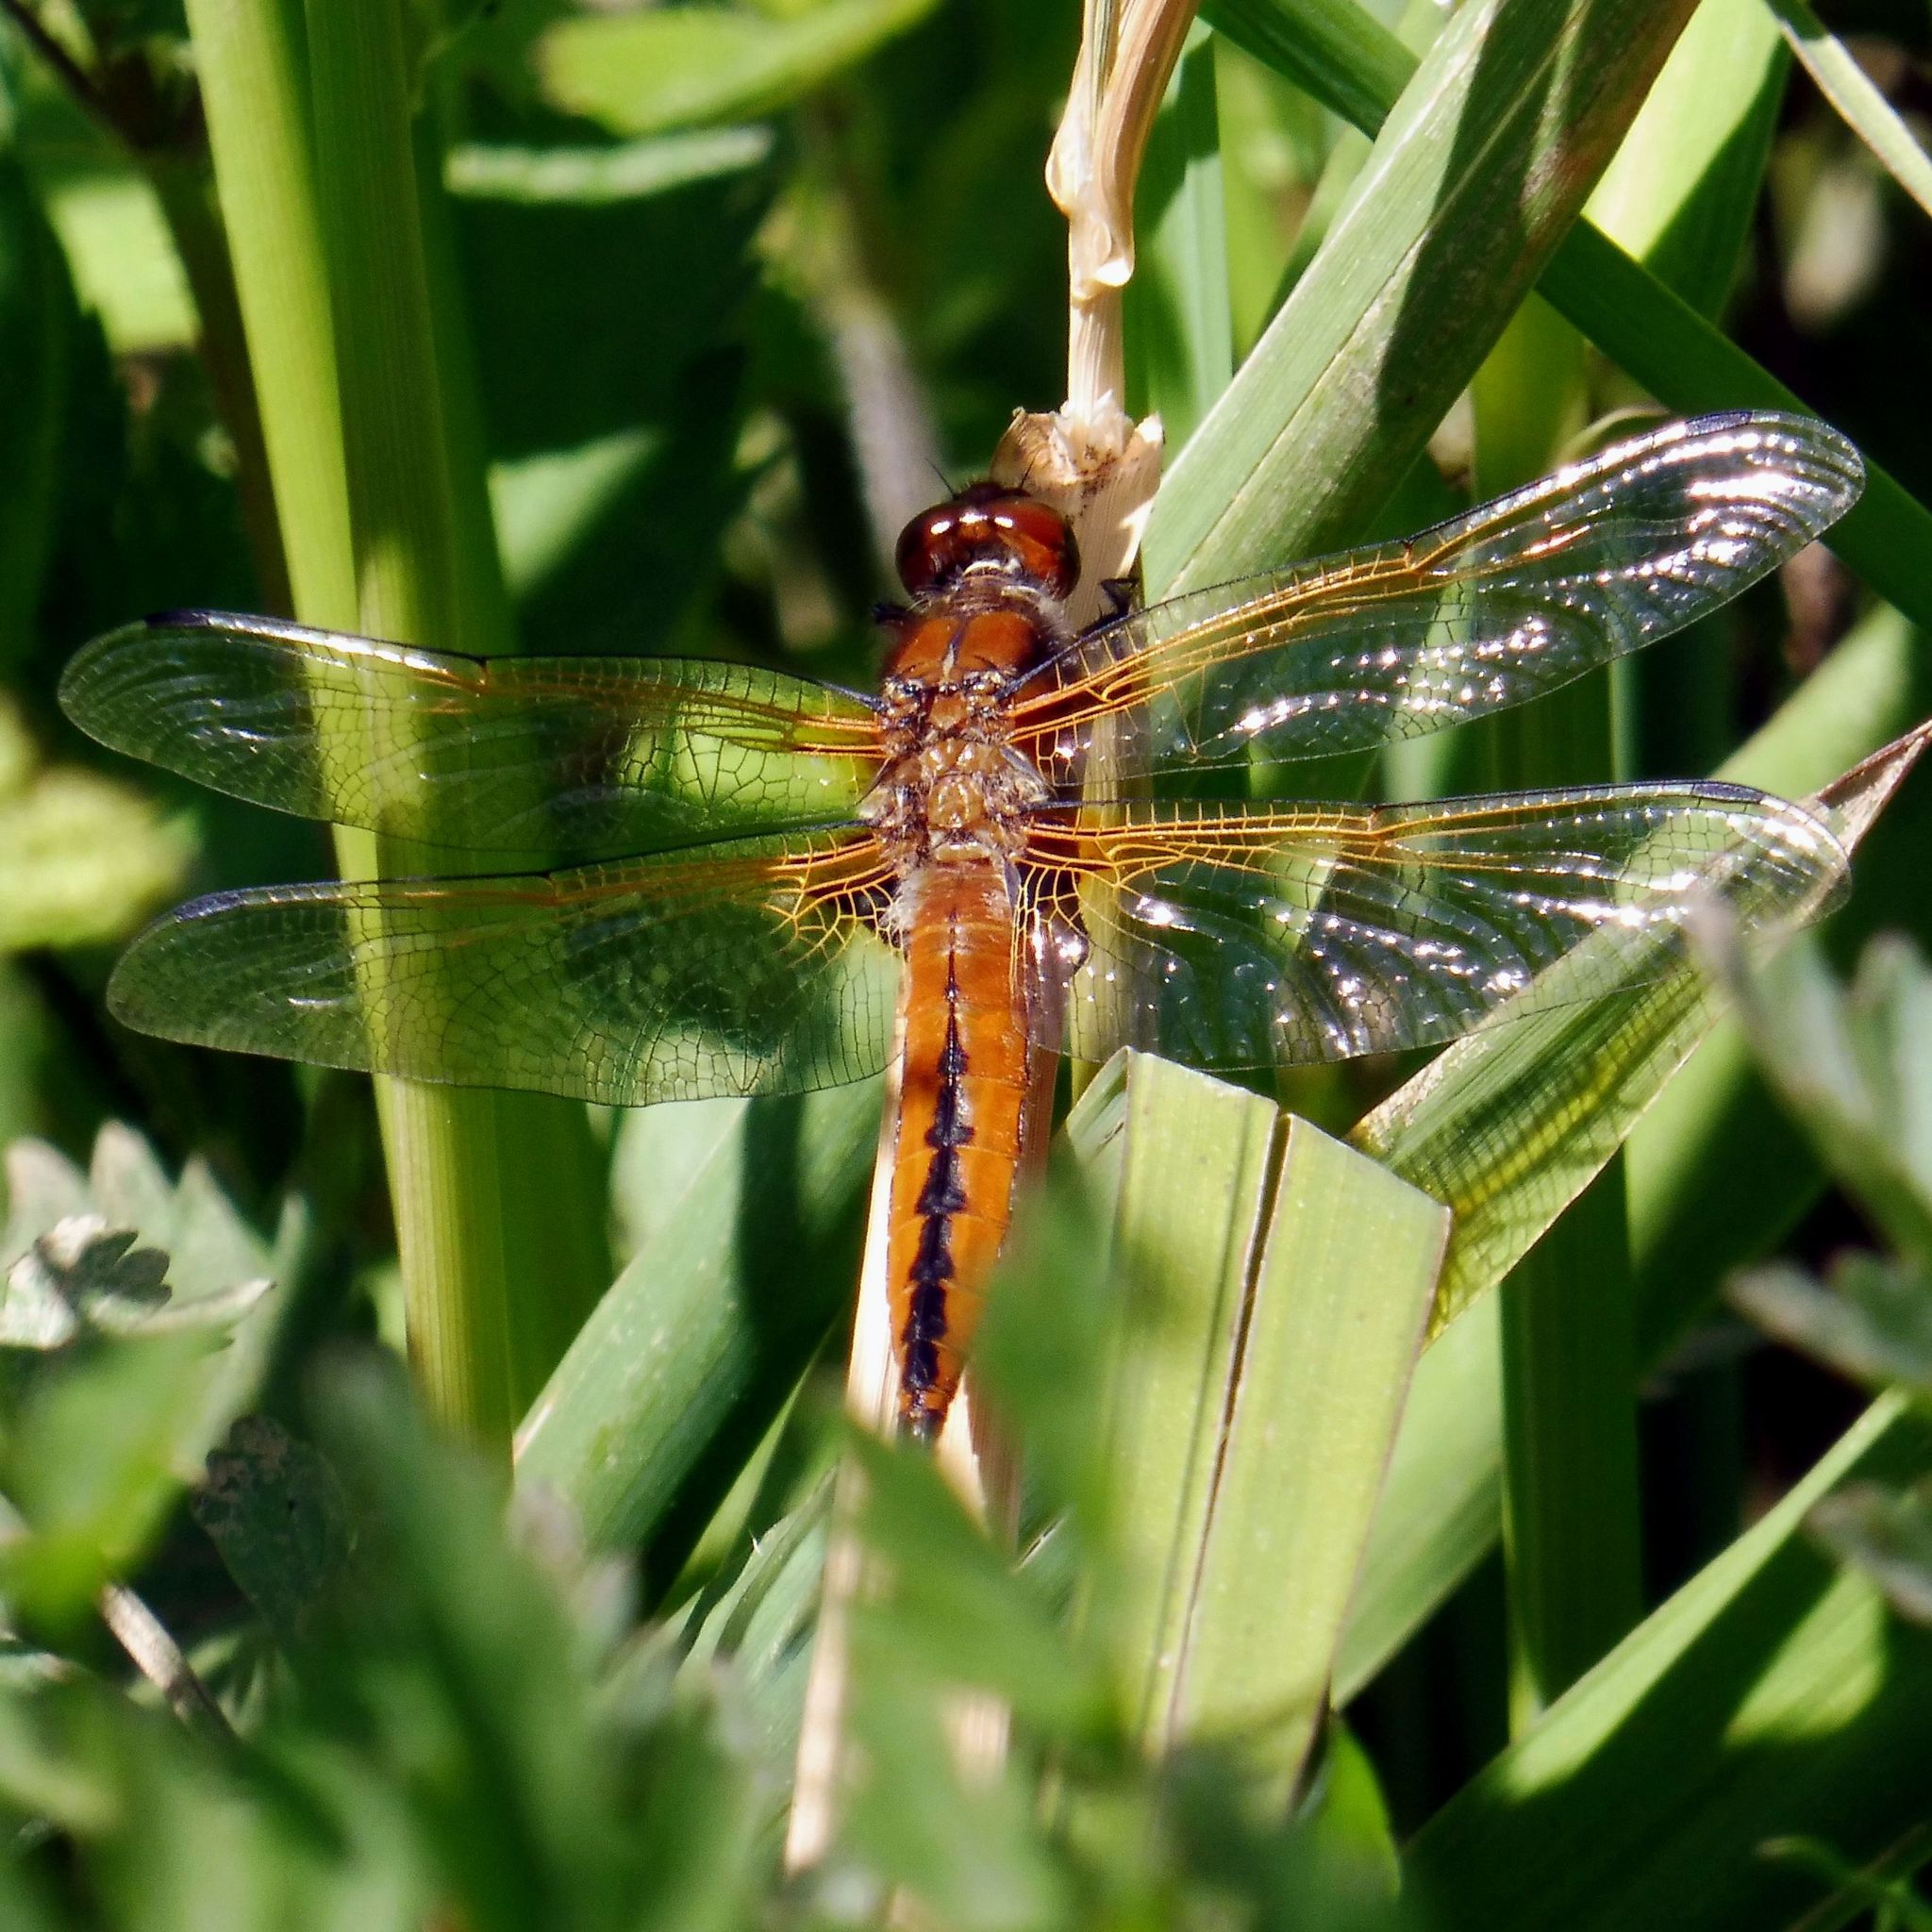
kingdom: Animalia
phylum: Arthropoda
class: Insecta
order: Odonata
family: Libellulidae
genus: Libellula
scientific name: Libellula fulva
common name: Blue chaser
